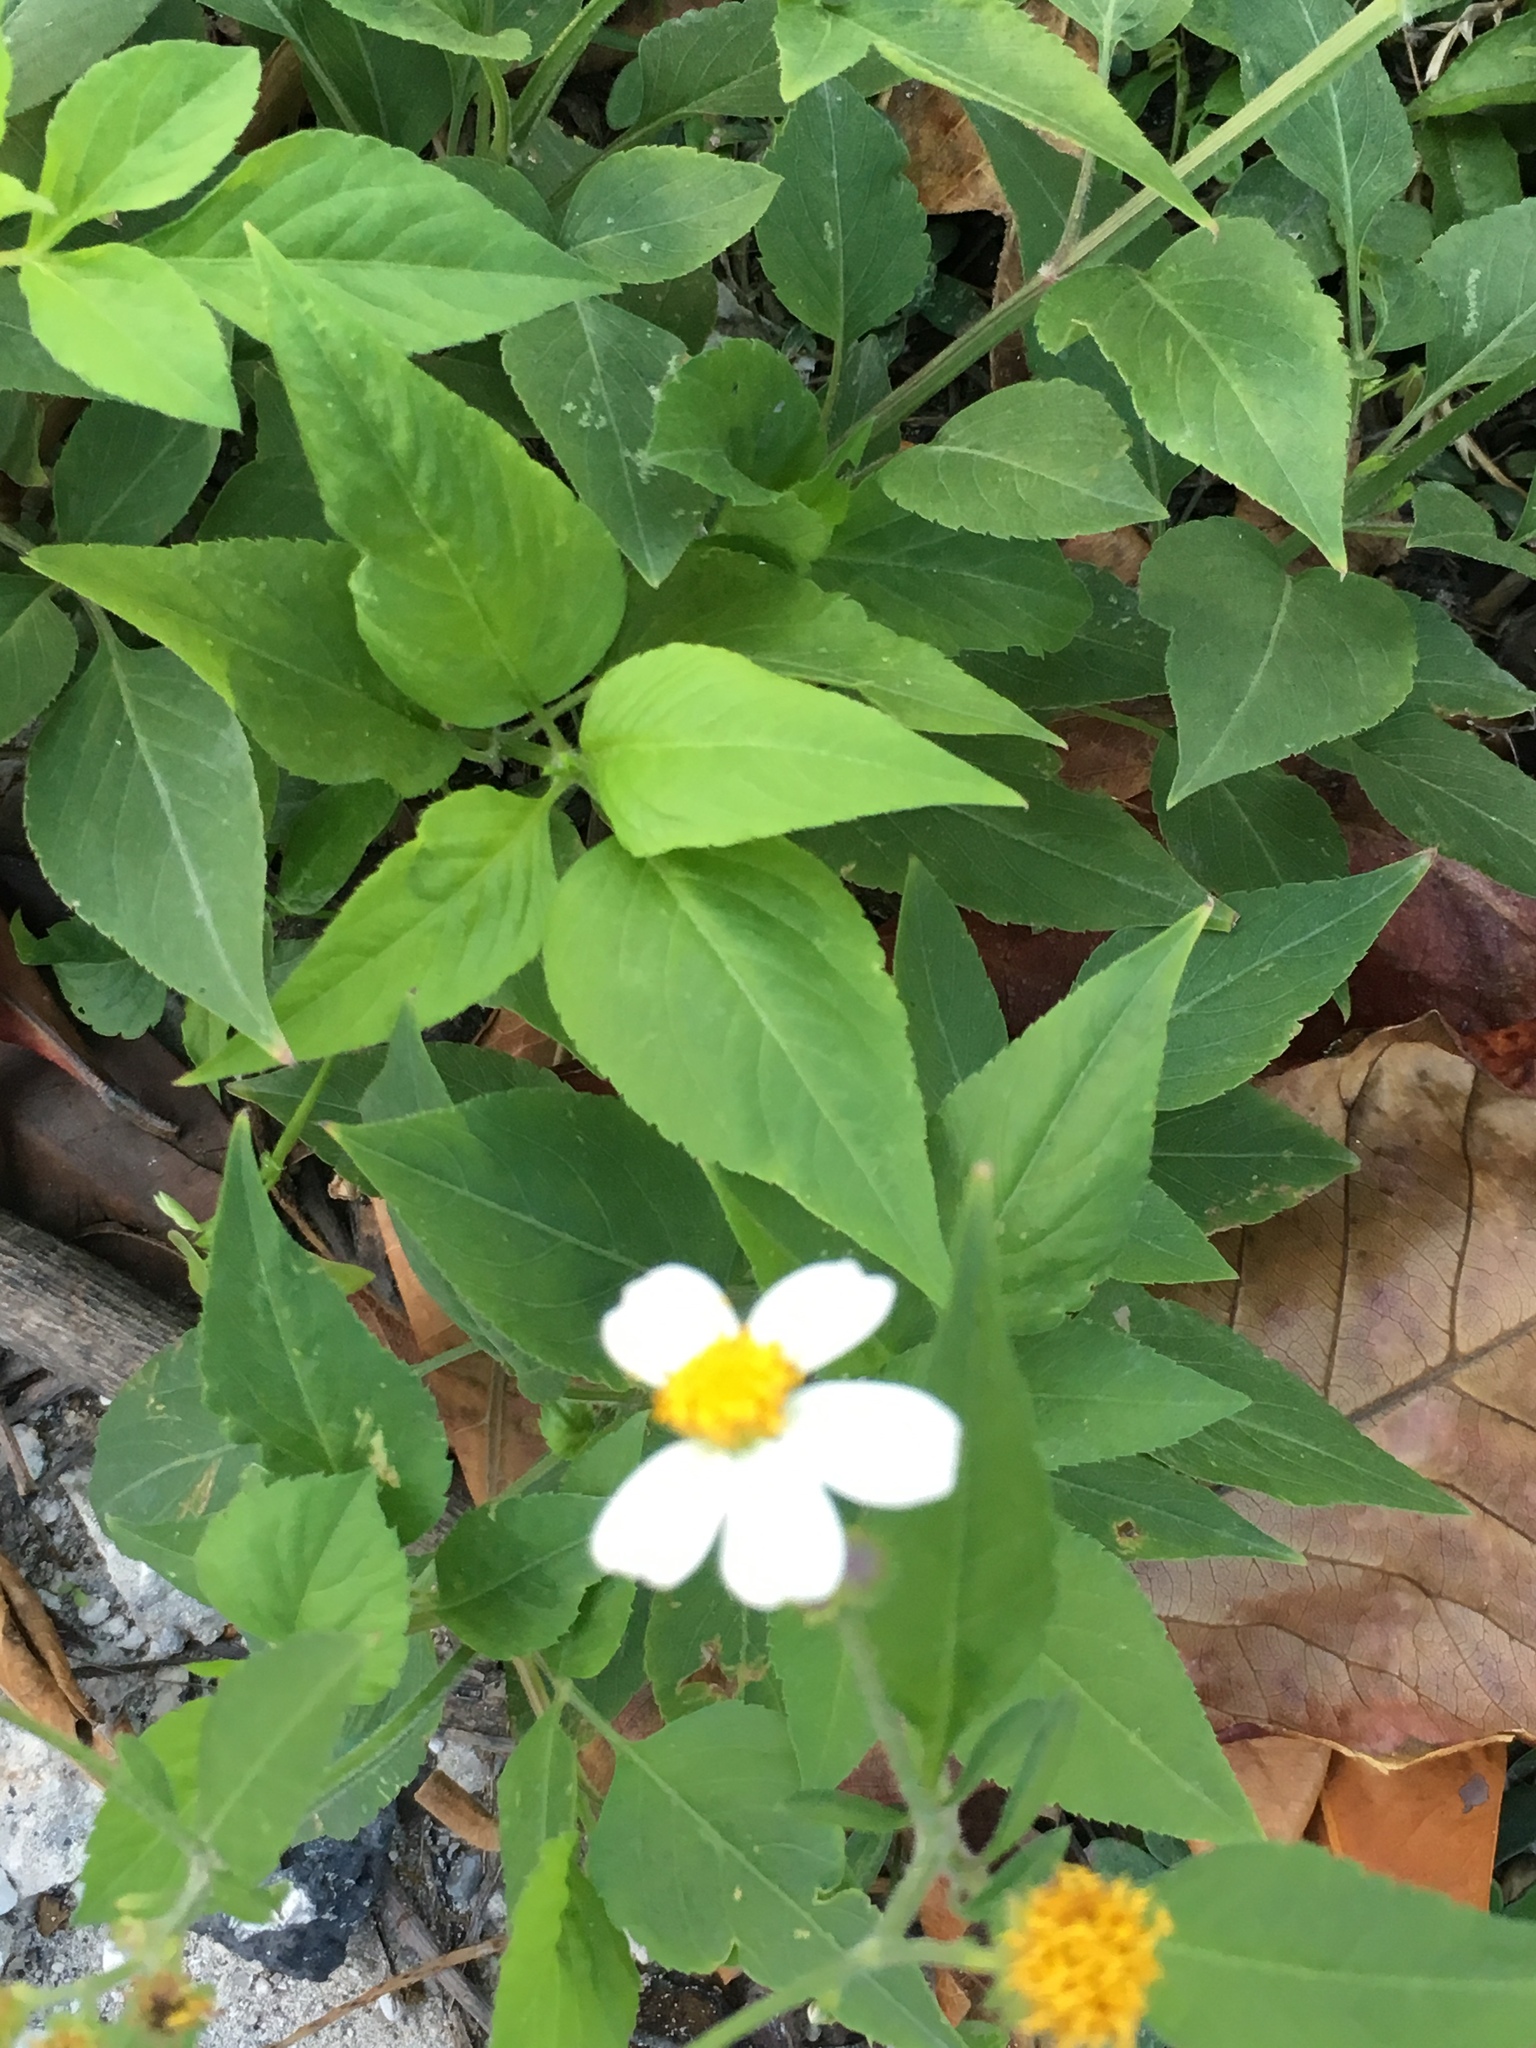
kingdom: Plantae
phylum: Tracheophyta
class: Magnoliopsida
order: Asterales
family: Asteraceae
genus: Bidens
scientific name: Bidens alba
